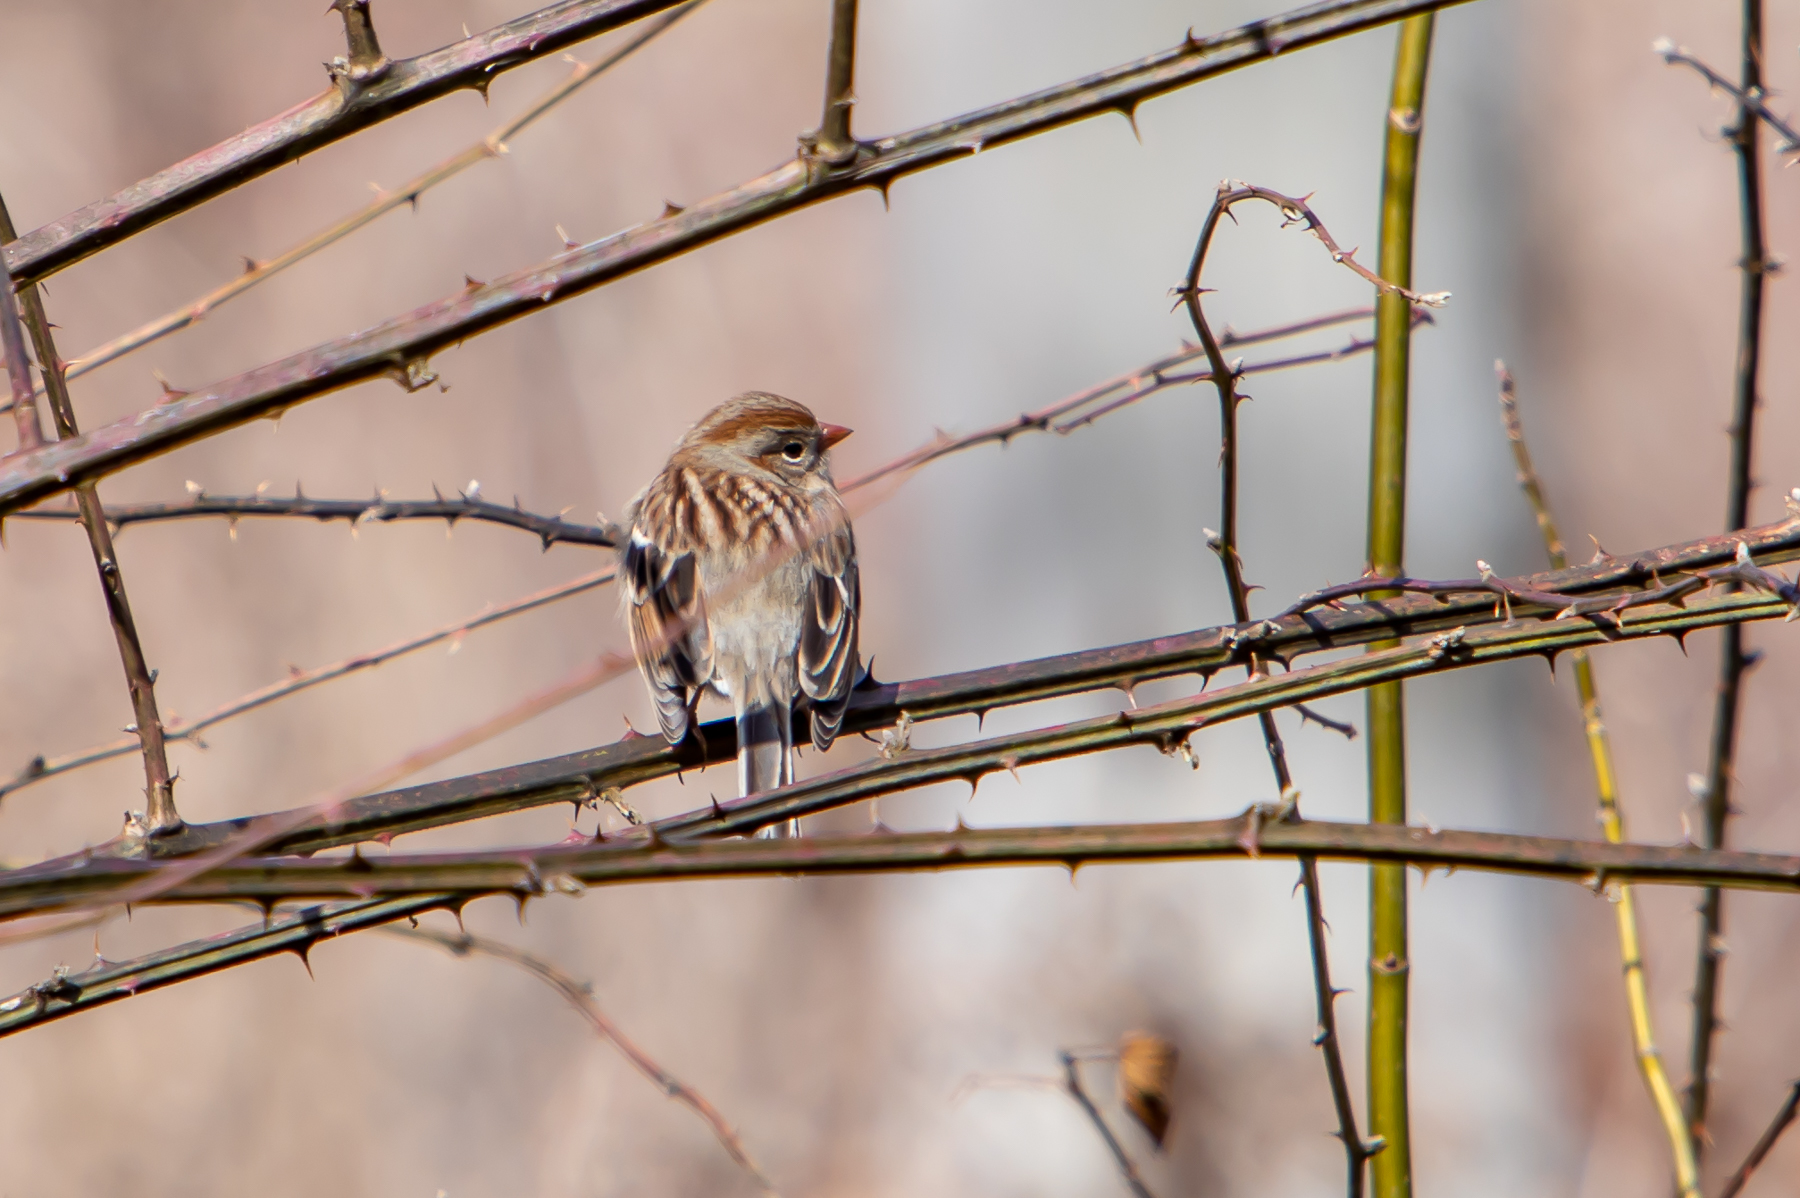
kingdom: Animalia
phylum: Chordata
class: Aves
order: Passeriformes
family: Passerellidae
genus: Spizella
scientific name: Spizella pusilla
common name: Field sparrow
